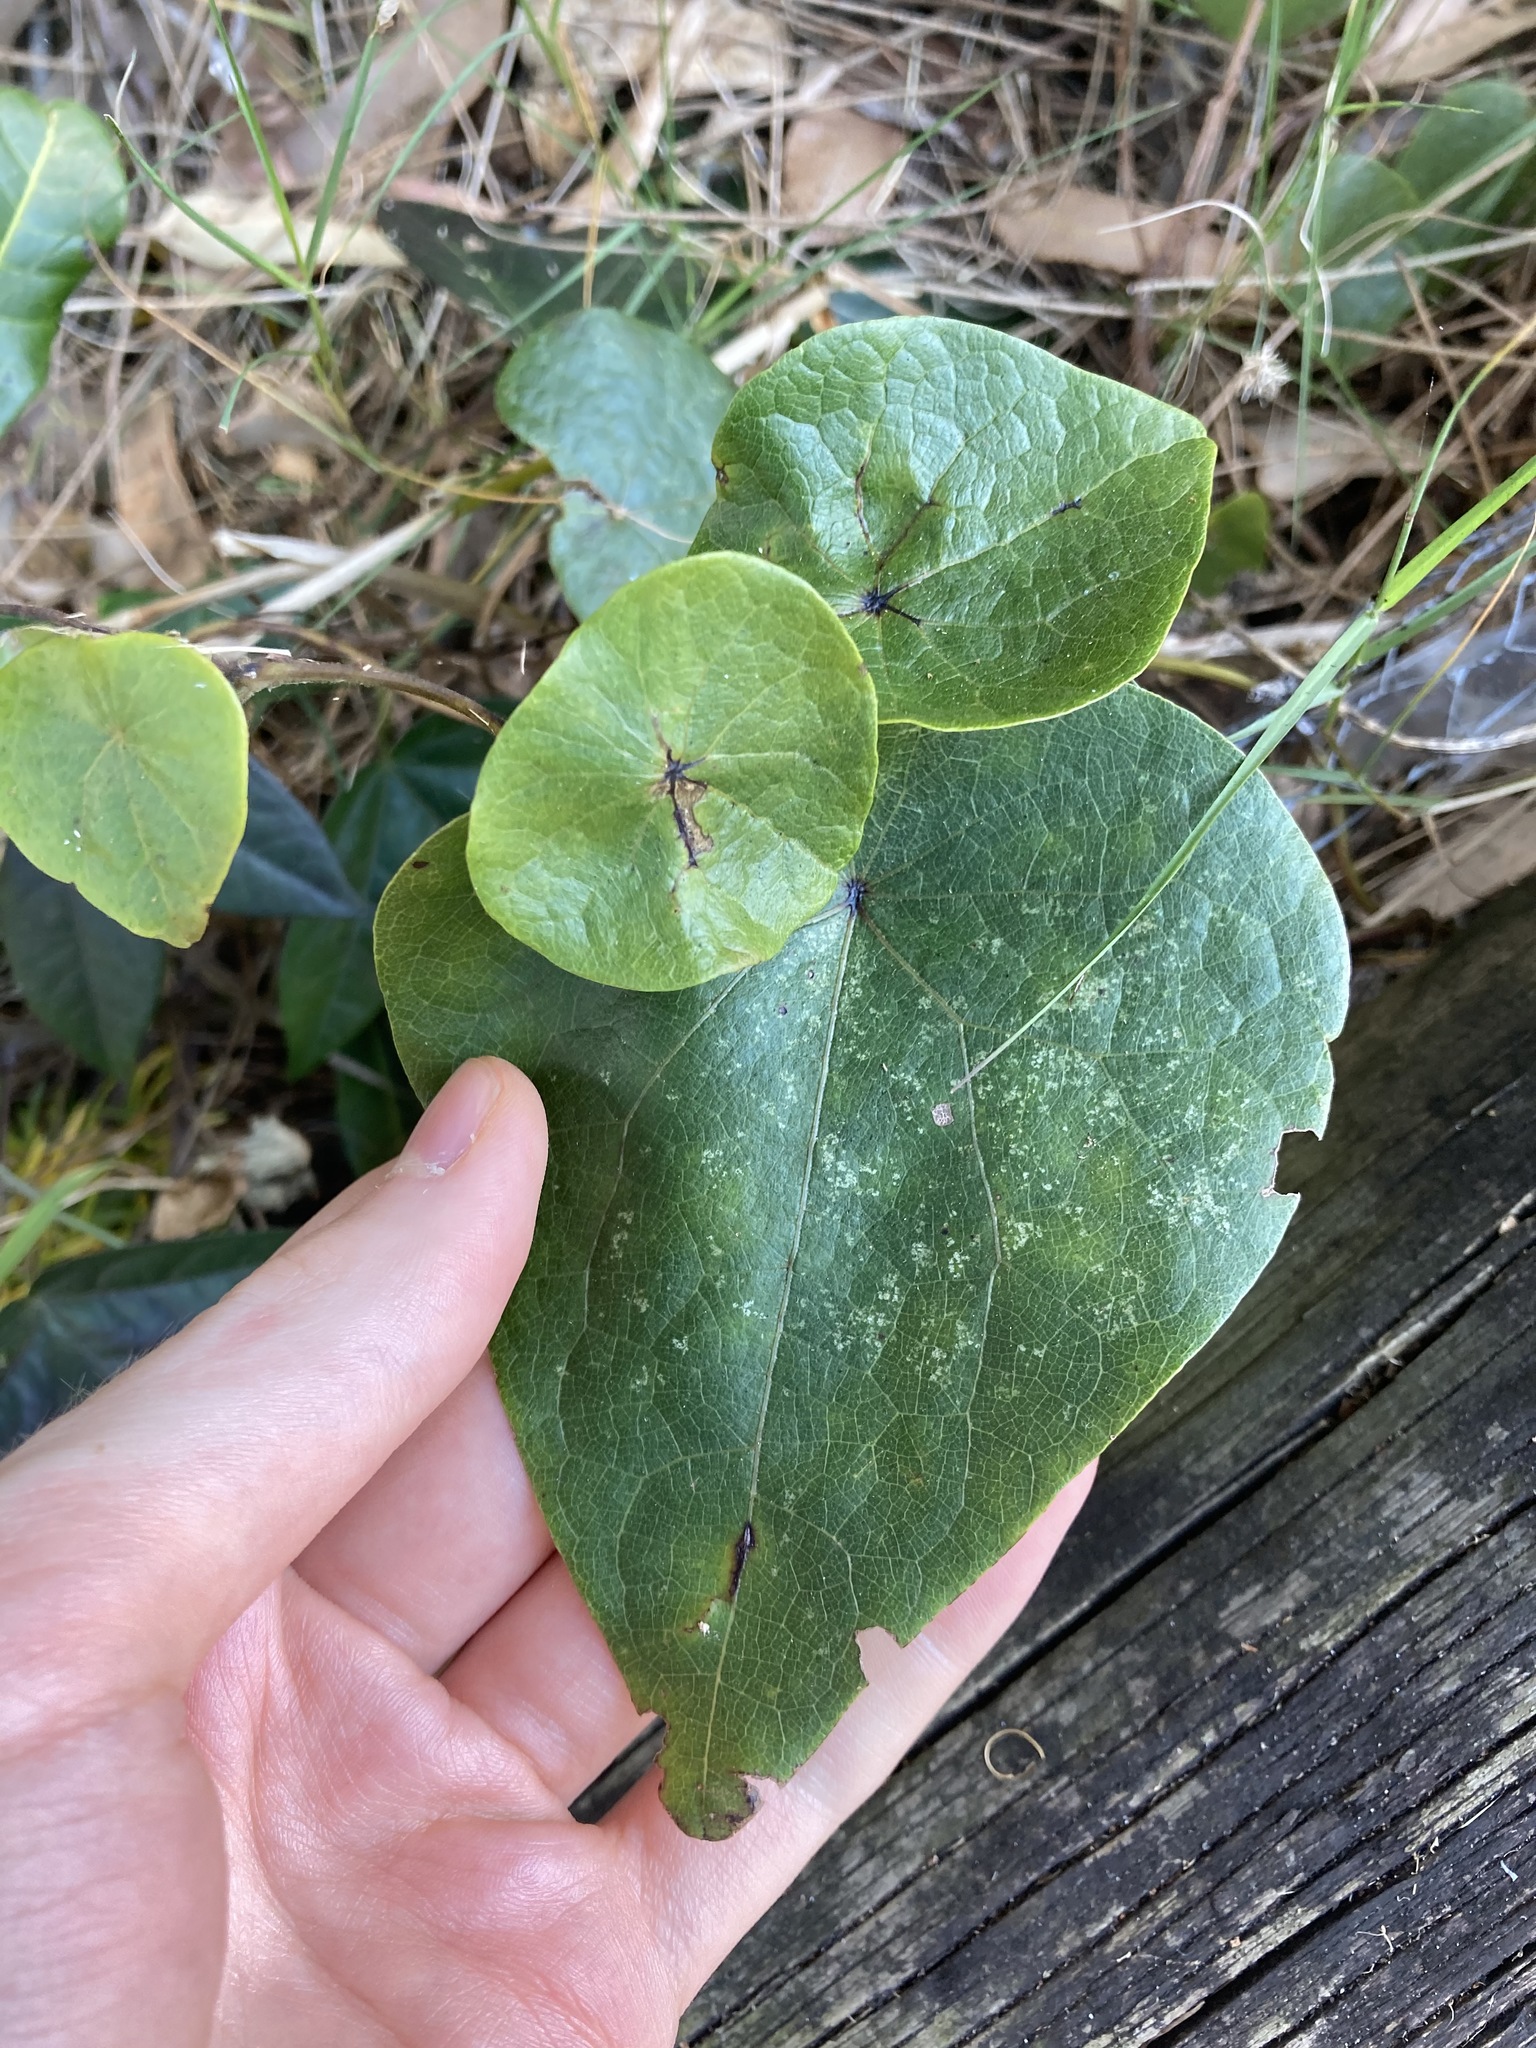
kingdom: Plantae
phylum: Tracheophyta
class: Magnoliopsida
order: Ranunculales
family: Menispermaceae
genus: Stephania
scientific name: Stephania japonica
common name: Snake vine
